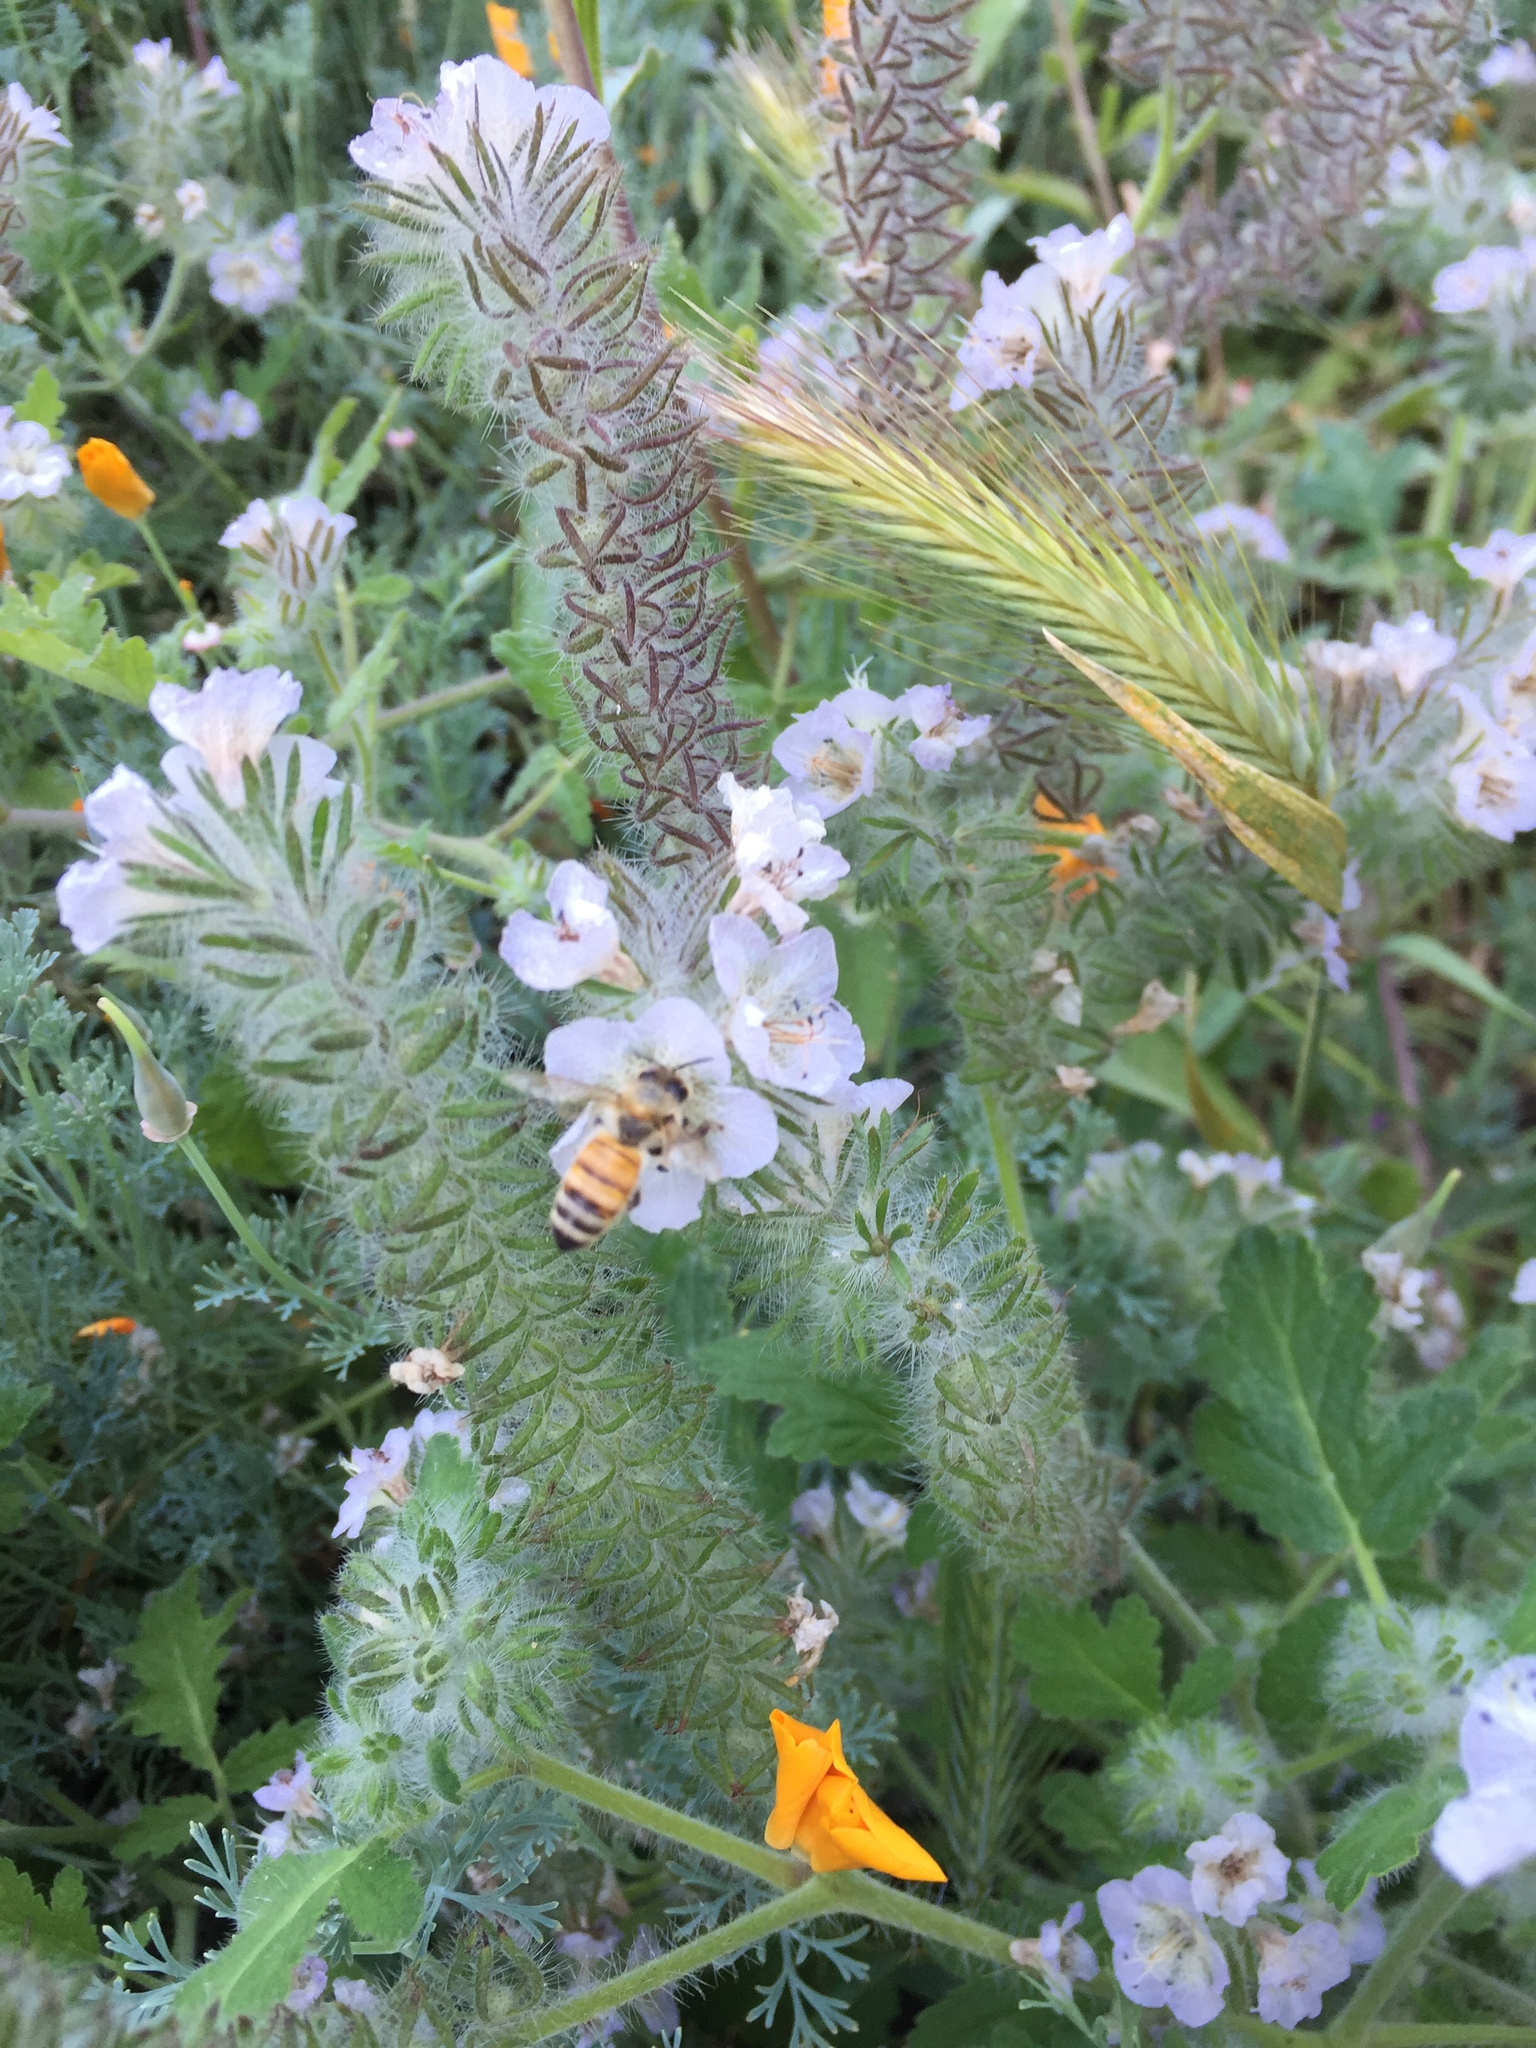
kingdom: Animalia
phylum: Arthropoda
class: Insecta
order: Hymenoptera
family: Apidae
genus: Apis
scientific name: Apis mellifera
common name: Honey bee
